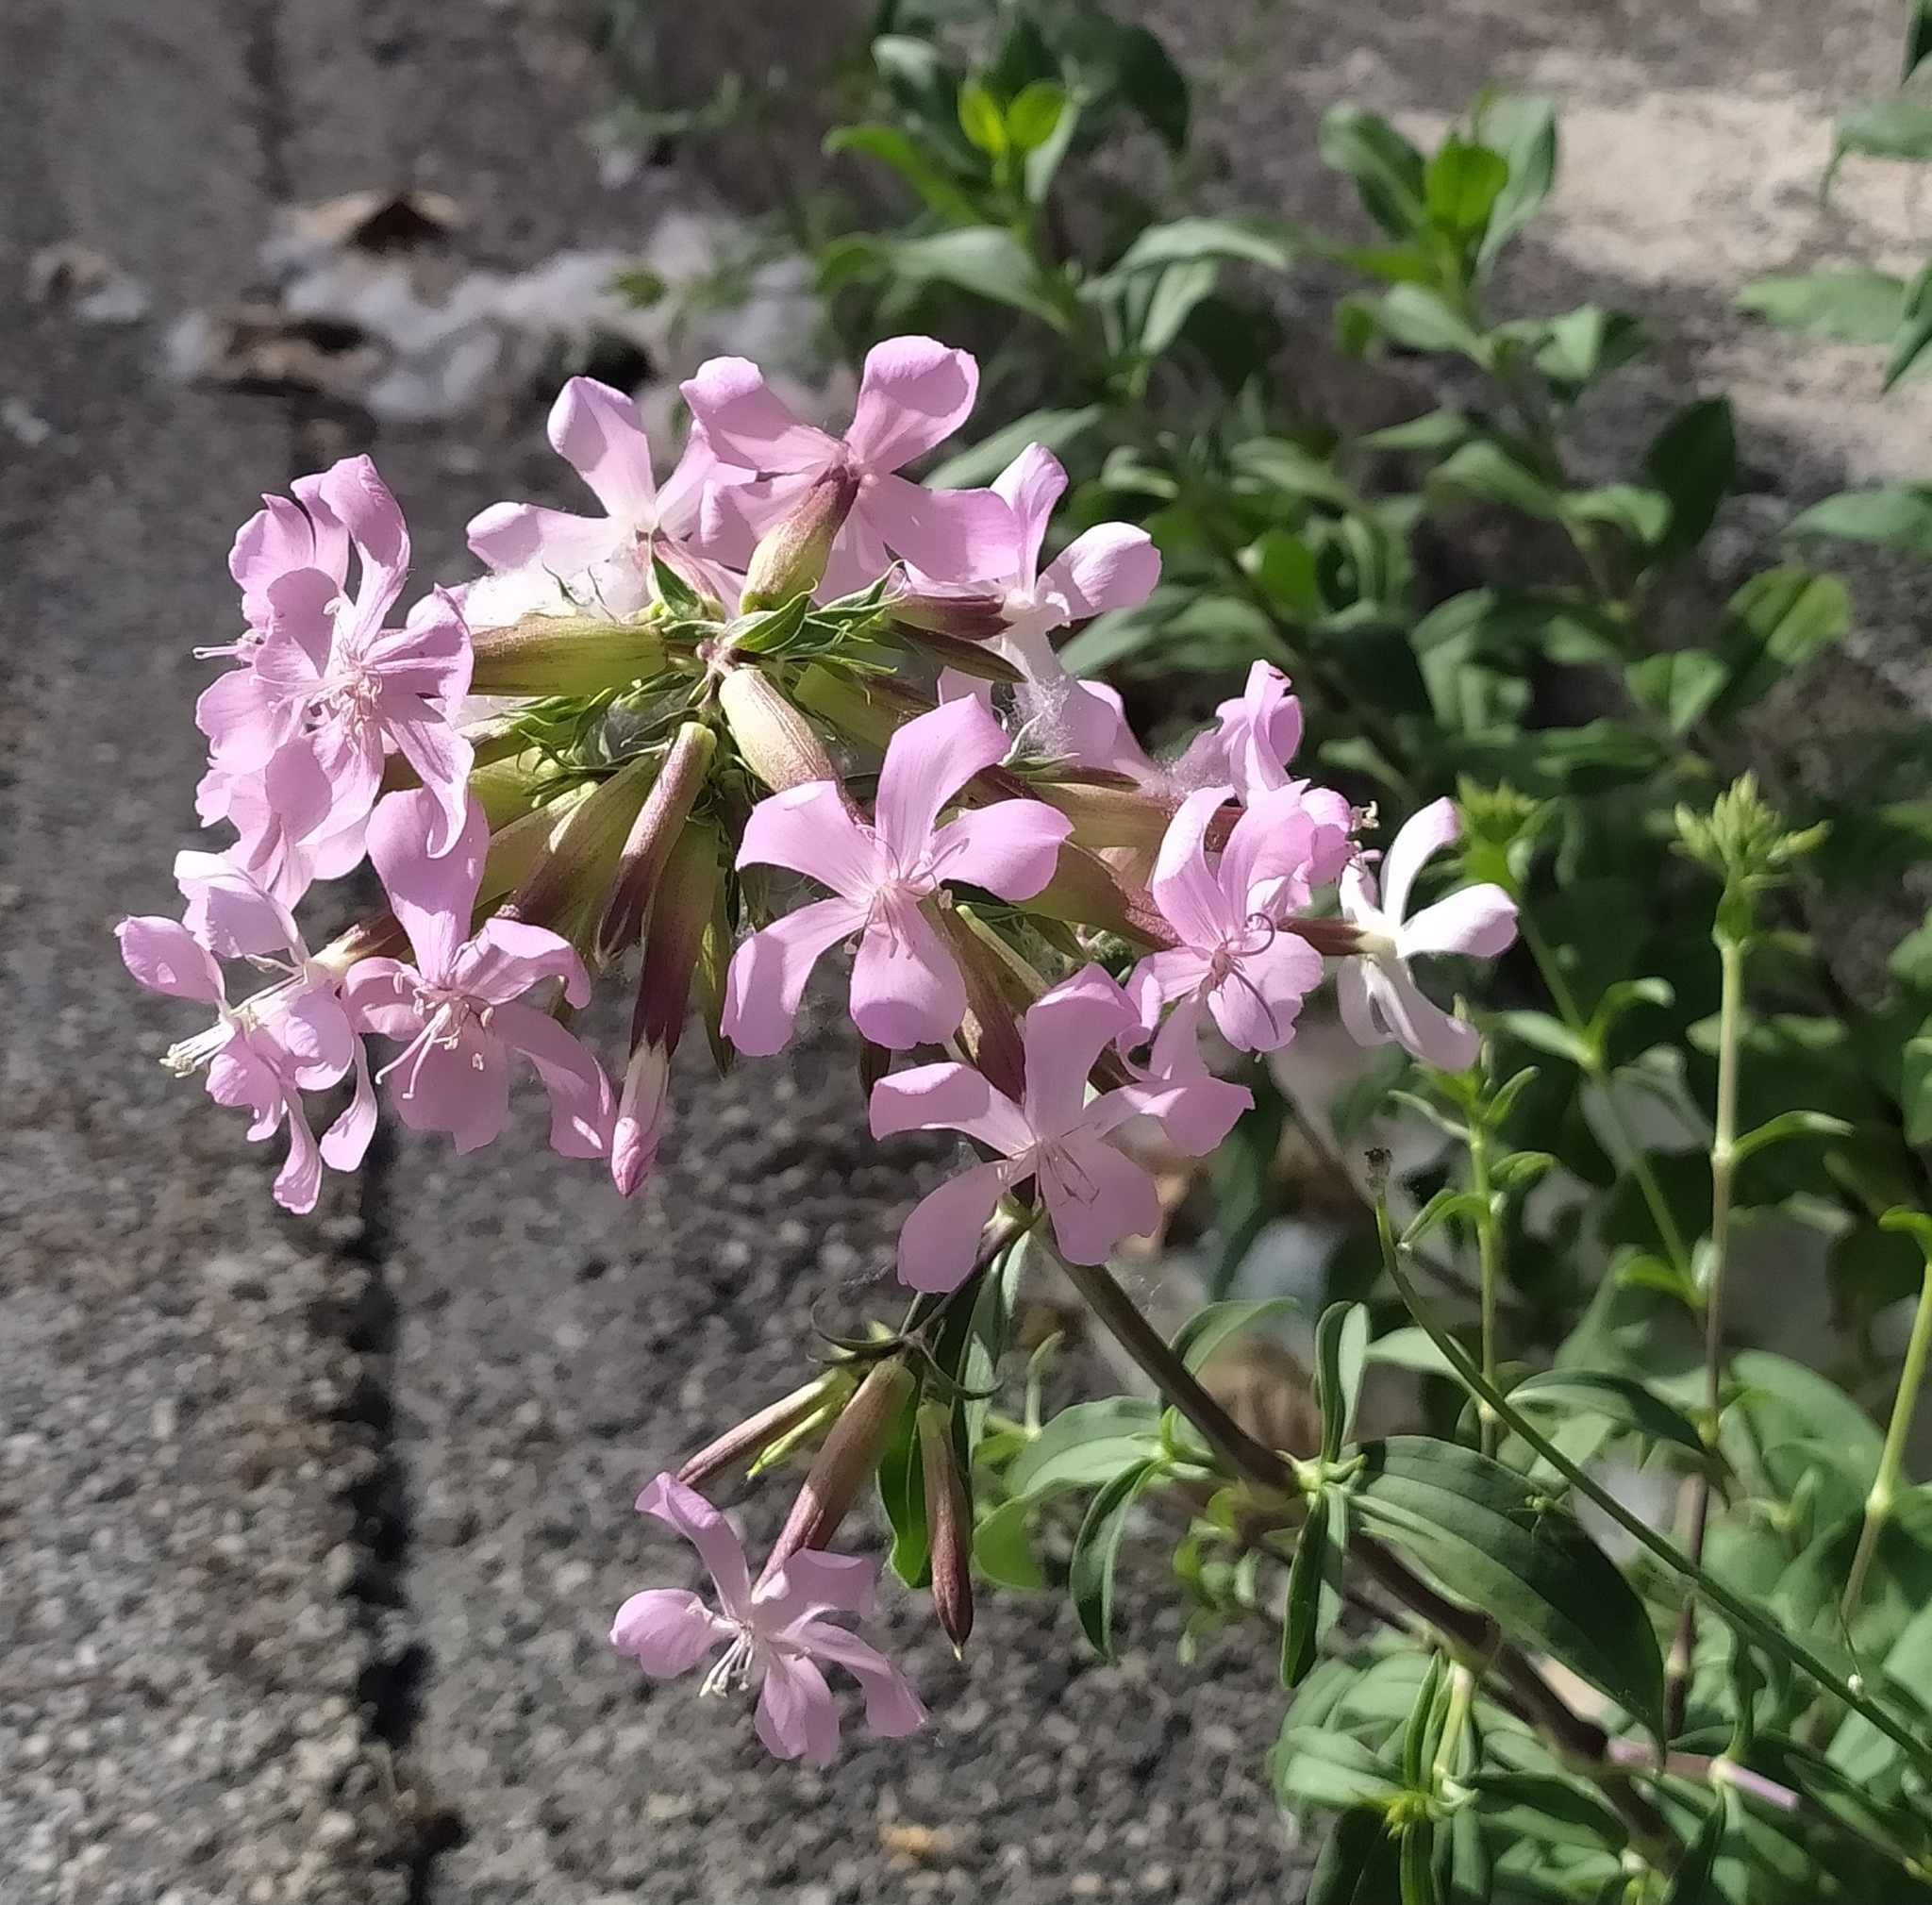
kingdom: Plantae
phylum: Tracheophyta
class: Magnoliopsida
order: Caryophyllales
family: Caryophyllaceae
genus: Saponaria
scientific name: Saponaria officinalis
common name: Soapwort
